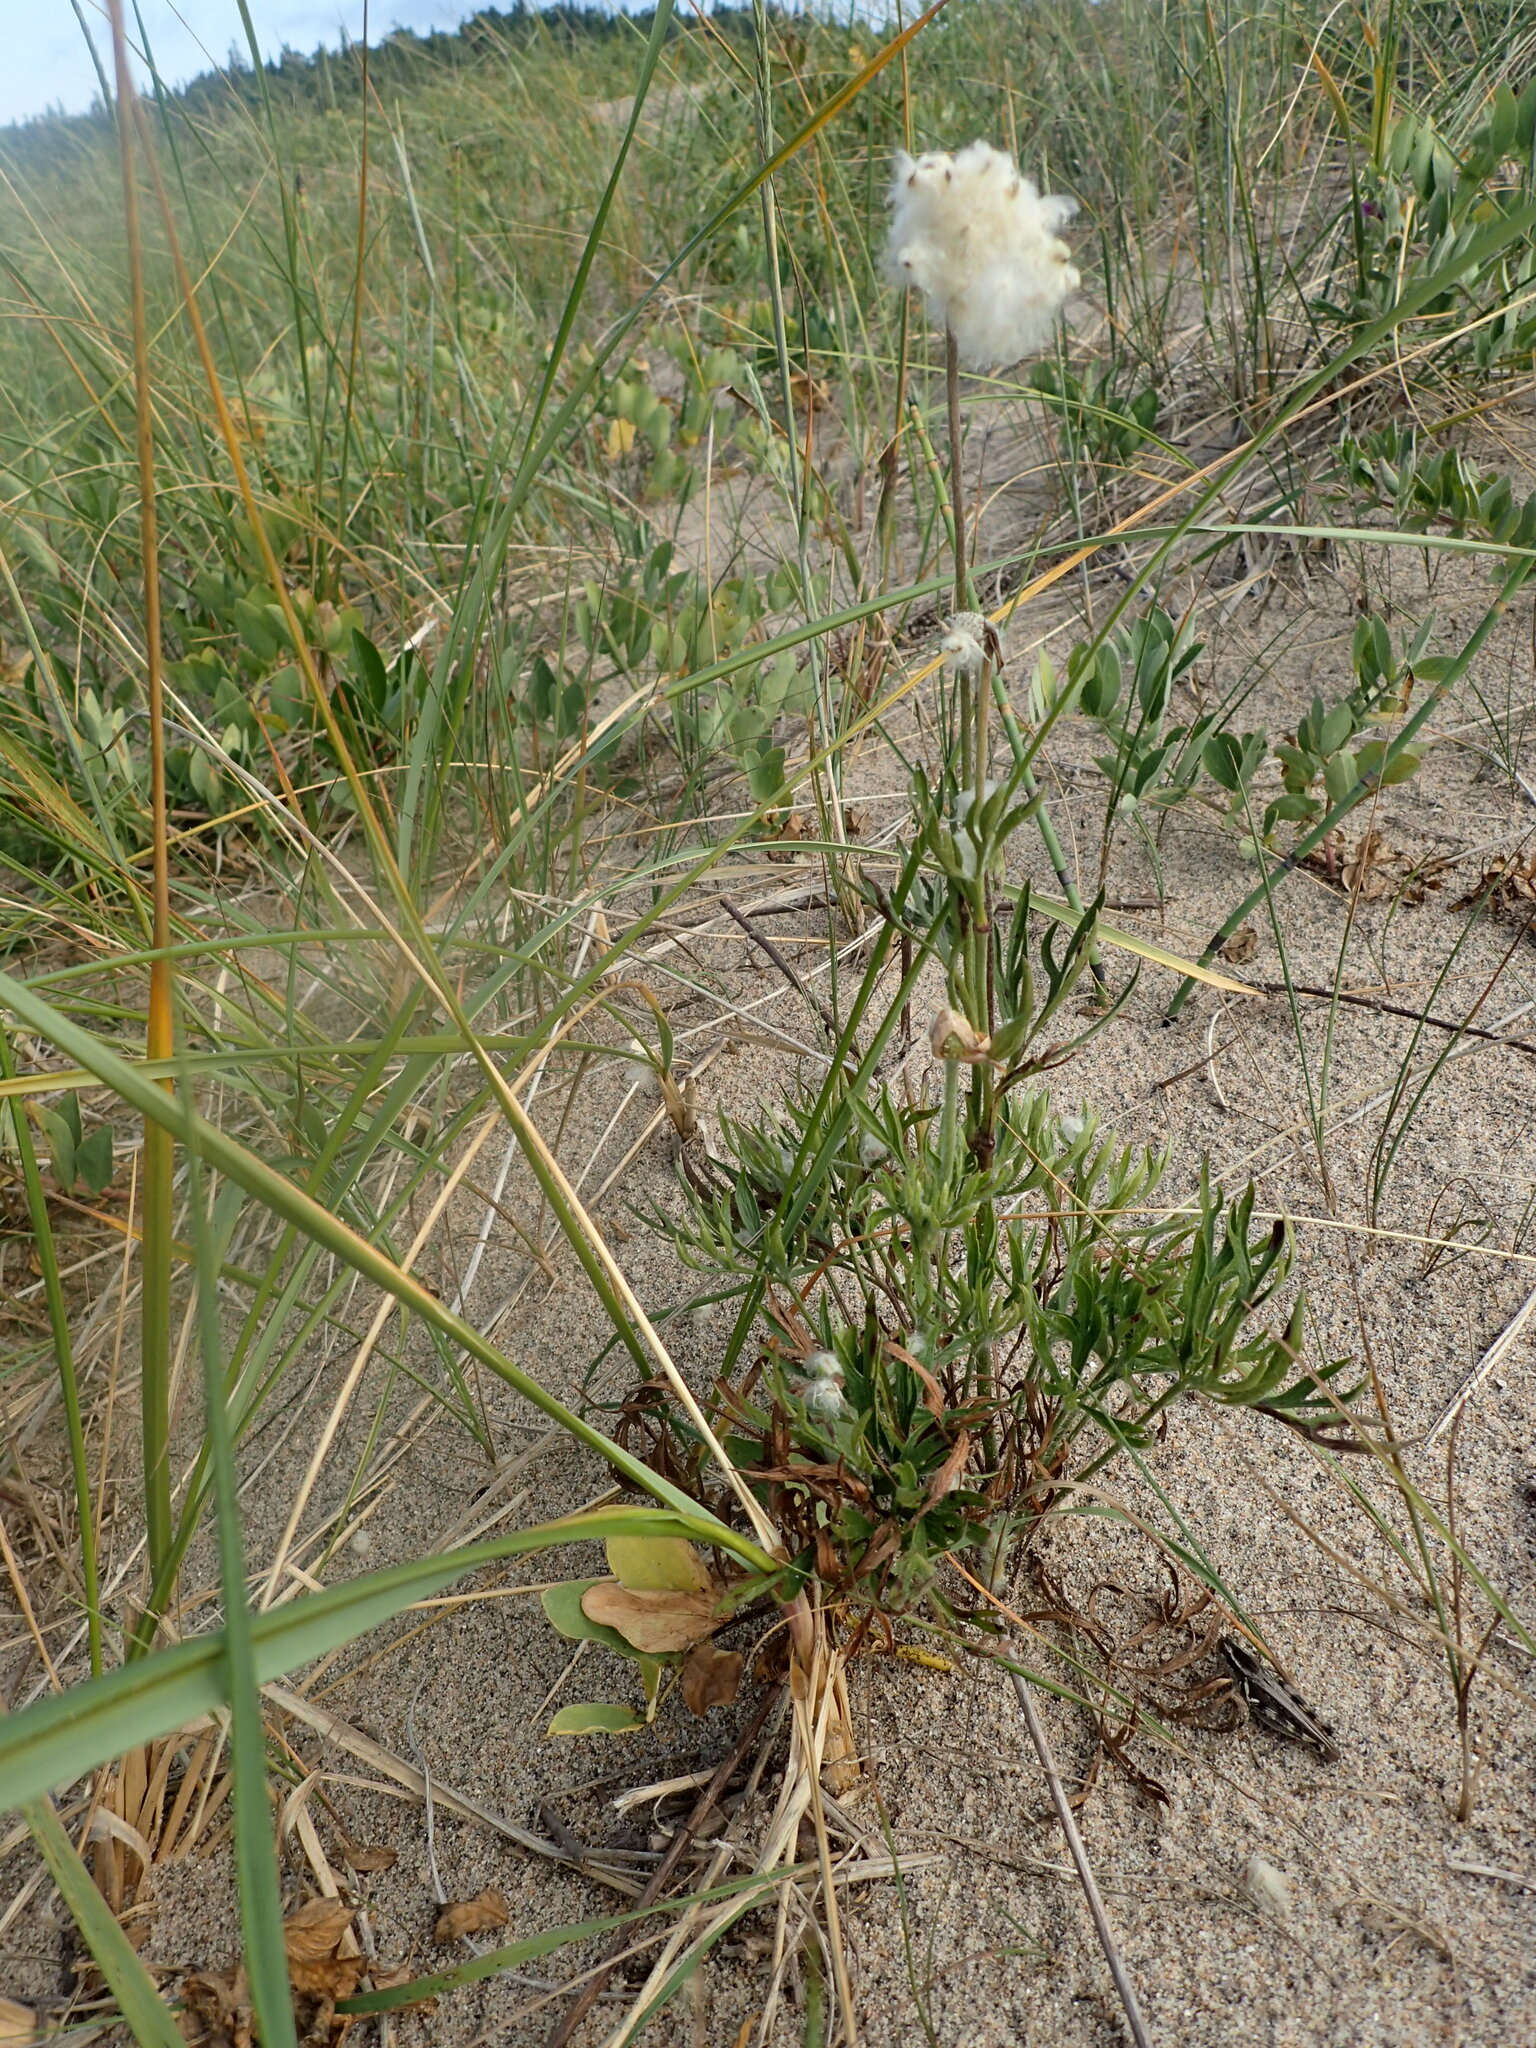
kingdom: Plantae
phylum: Tracheophyta
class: Magnoliopsida
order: Ranunculales
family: Ranunculaceae
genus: Anemone
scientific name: Anemone multifida
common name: Bird's-foot anemone
